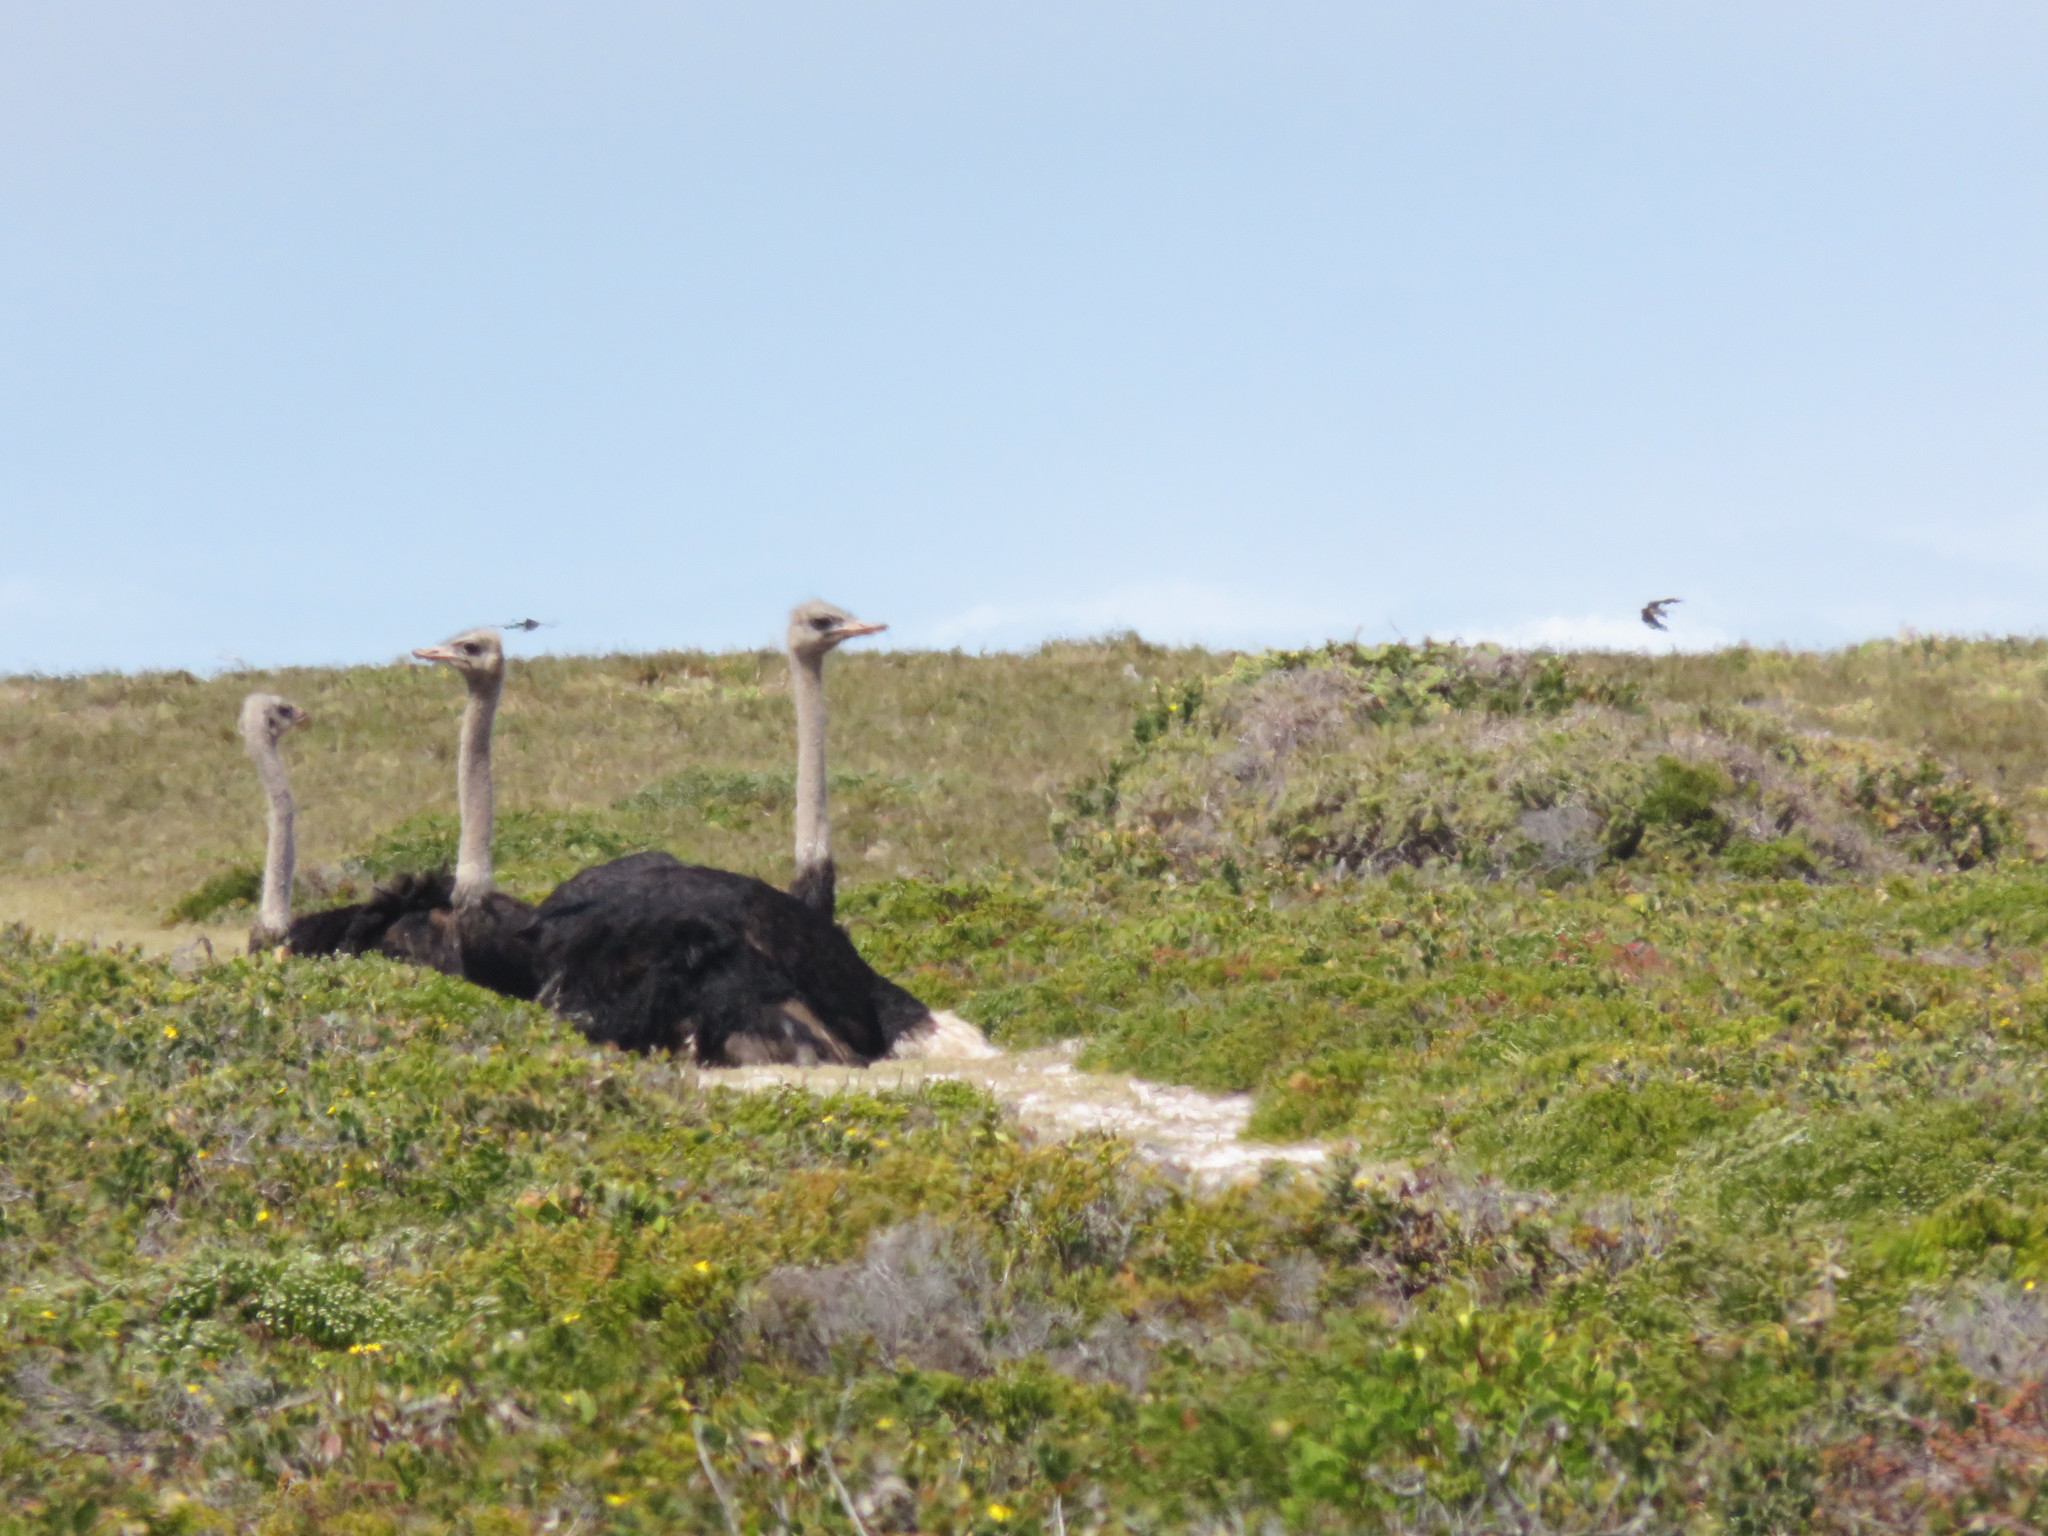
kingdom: Animalia
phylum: Chordata
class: Aves
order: Struthioniformes
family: Struthionidae
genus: Struthio
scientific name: Struthio camelus
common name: Common ostrich
